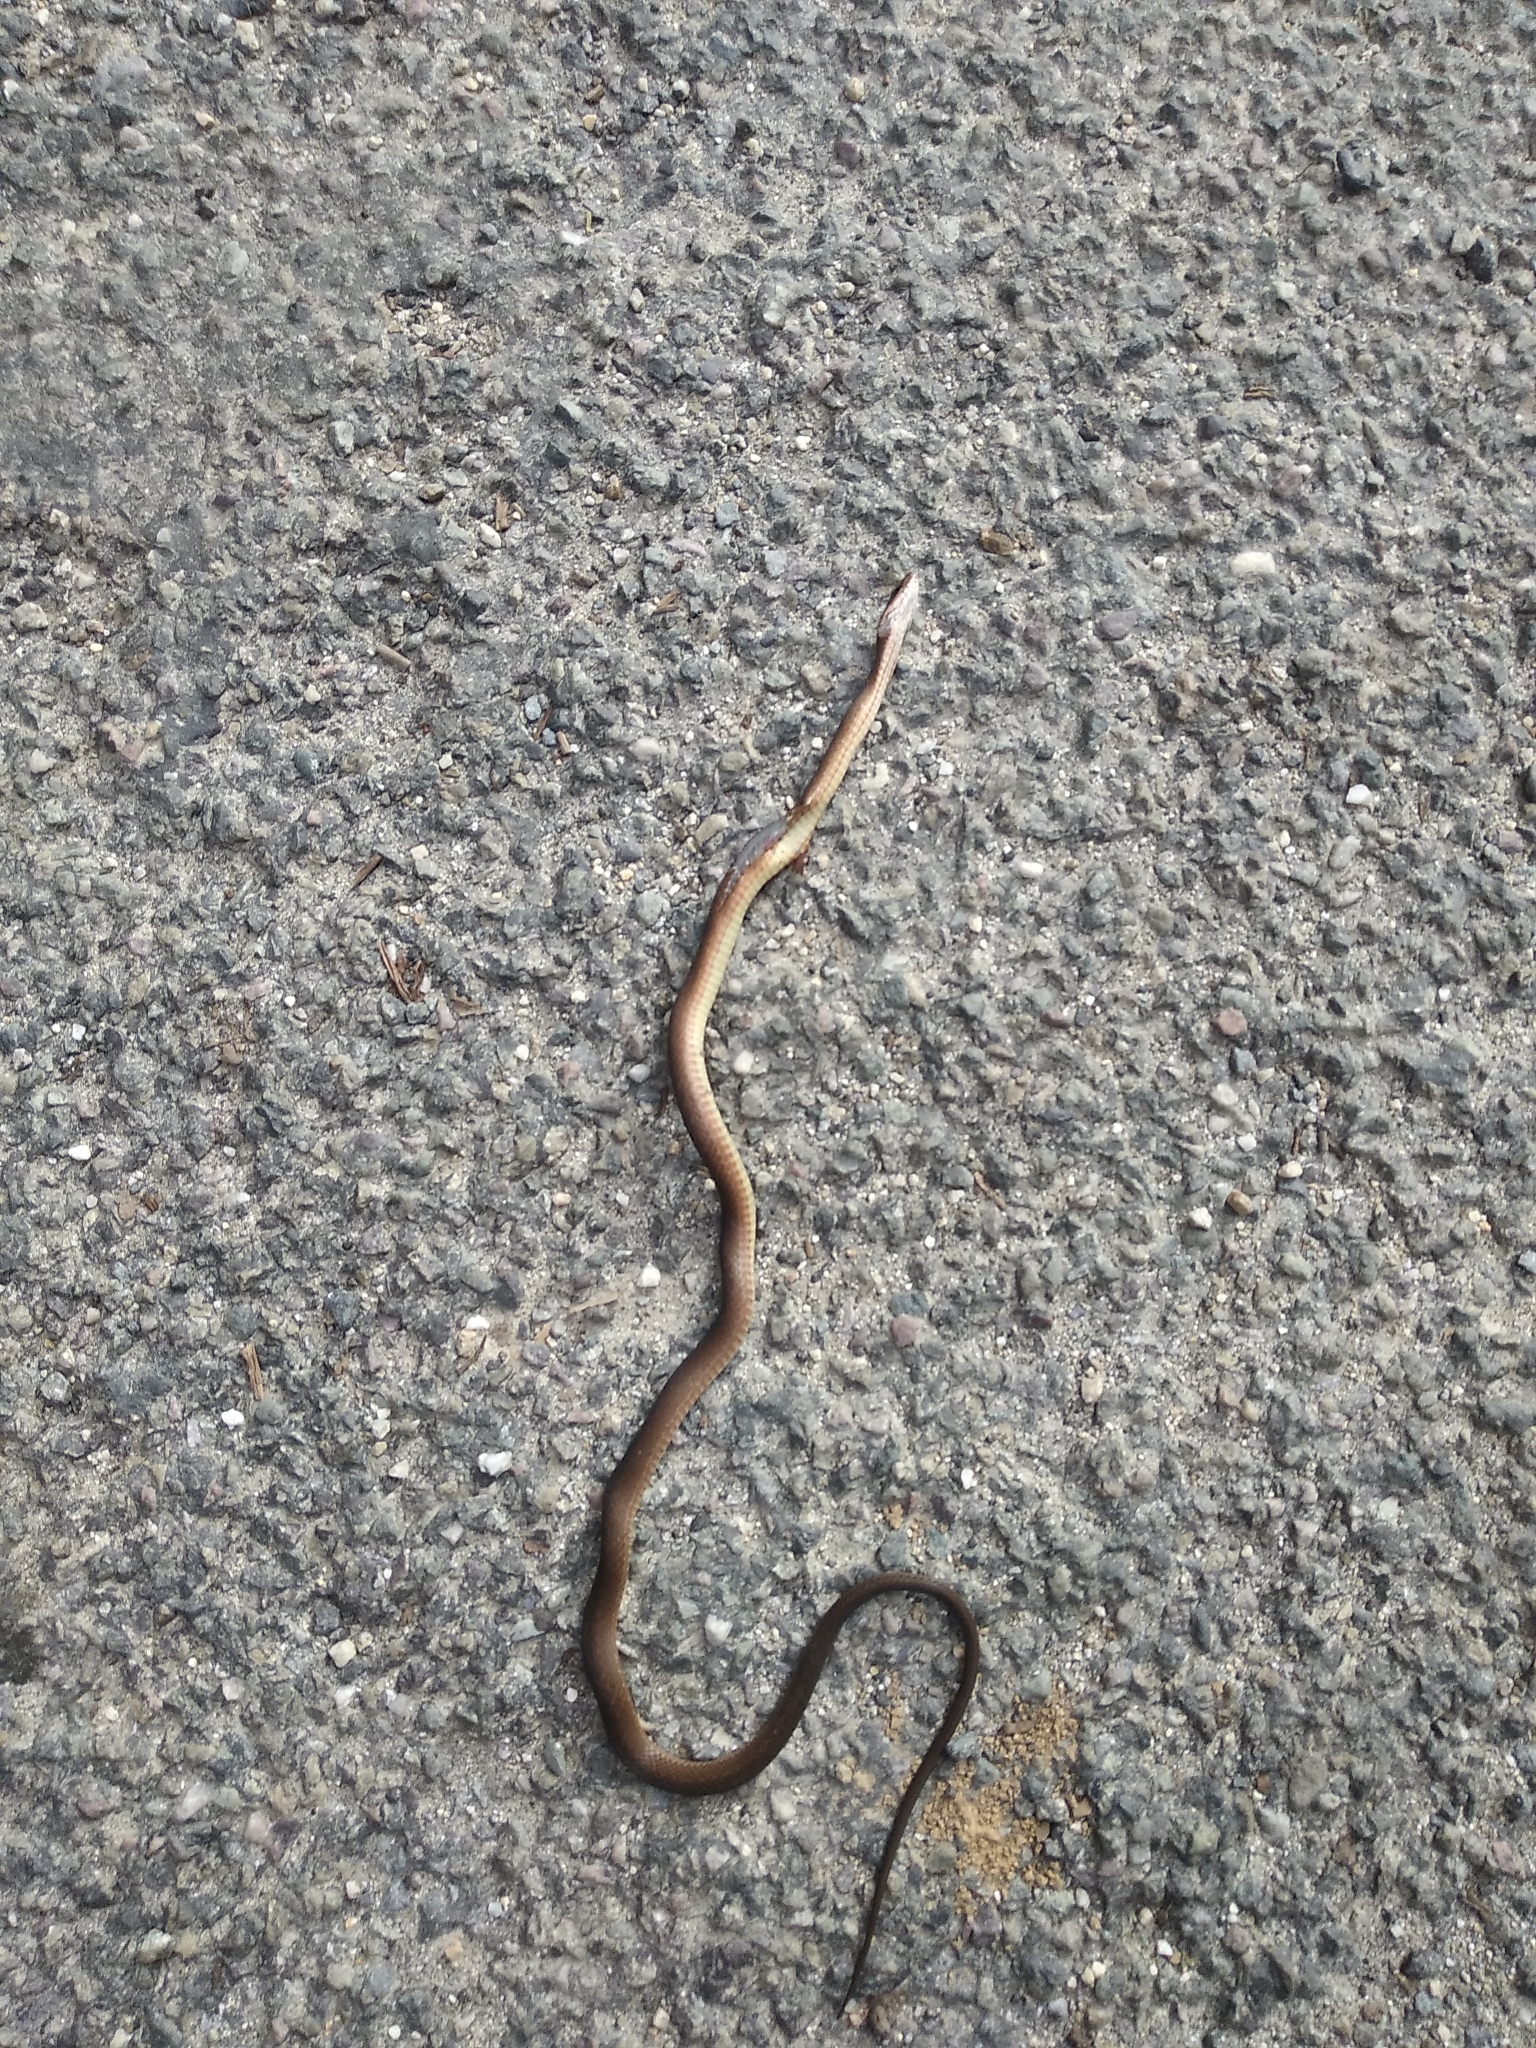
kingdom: Animalia
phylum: Chordata
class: Squamata
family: Colubridae
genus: Herpetoreas
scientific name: Herpetoreas platyceps
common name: Himalayan keelback
